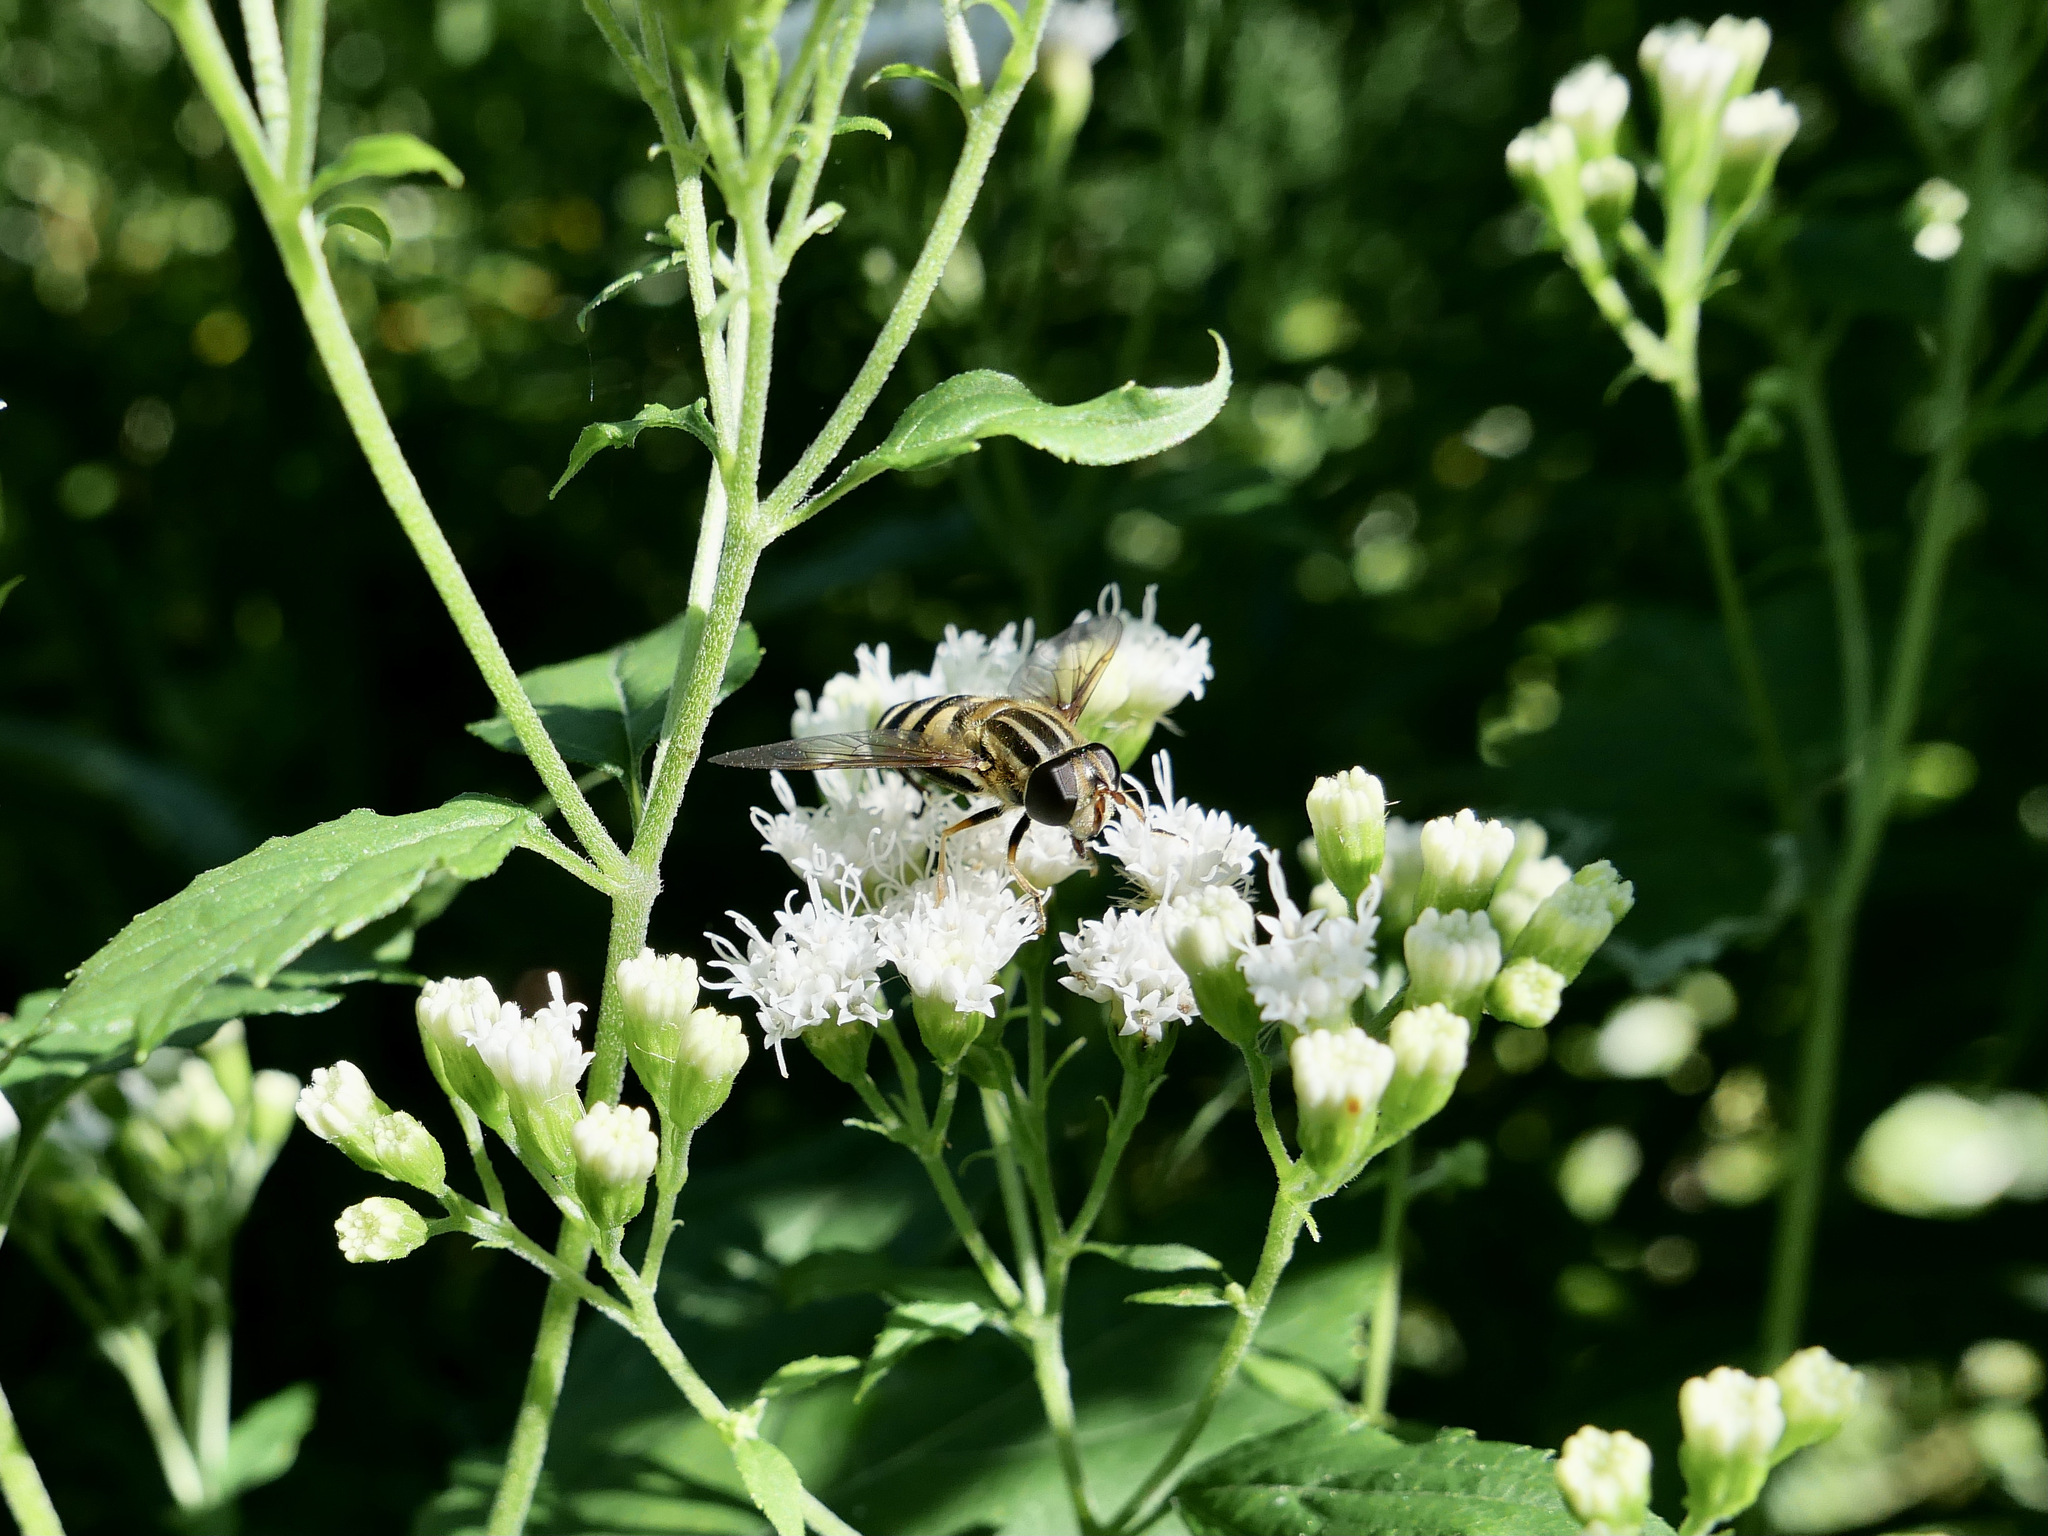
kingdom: Animalia
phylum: Arthropoda
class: Insecta
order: Diptera
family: Syrphidae
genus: Helophilus
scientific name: Helophilus fasciatus
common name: Narrow-headed marsh fly
